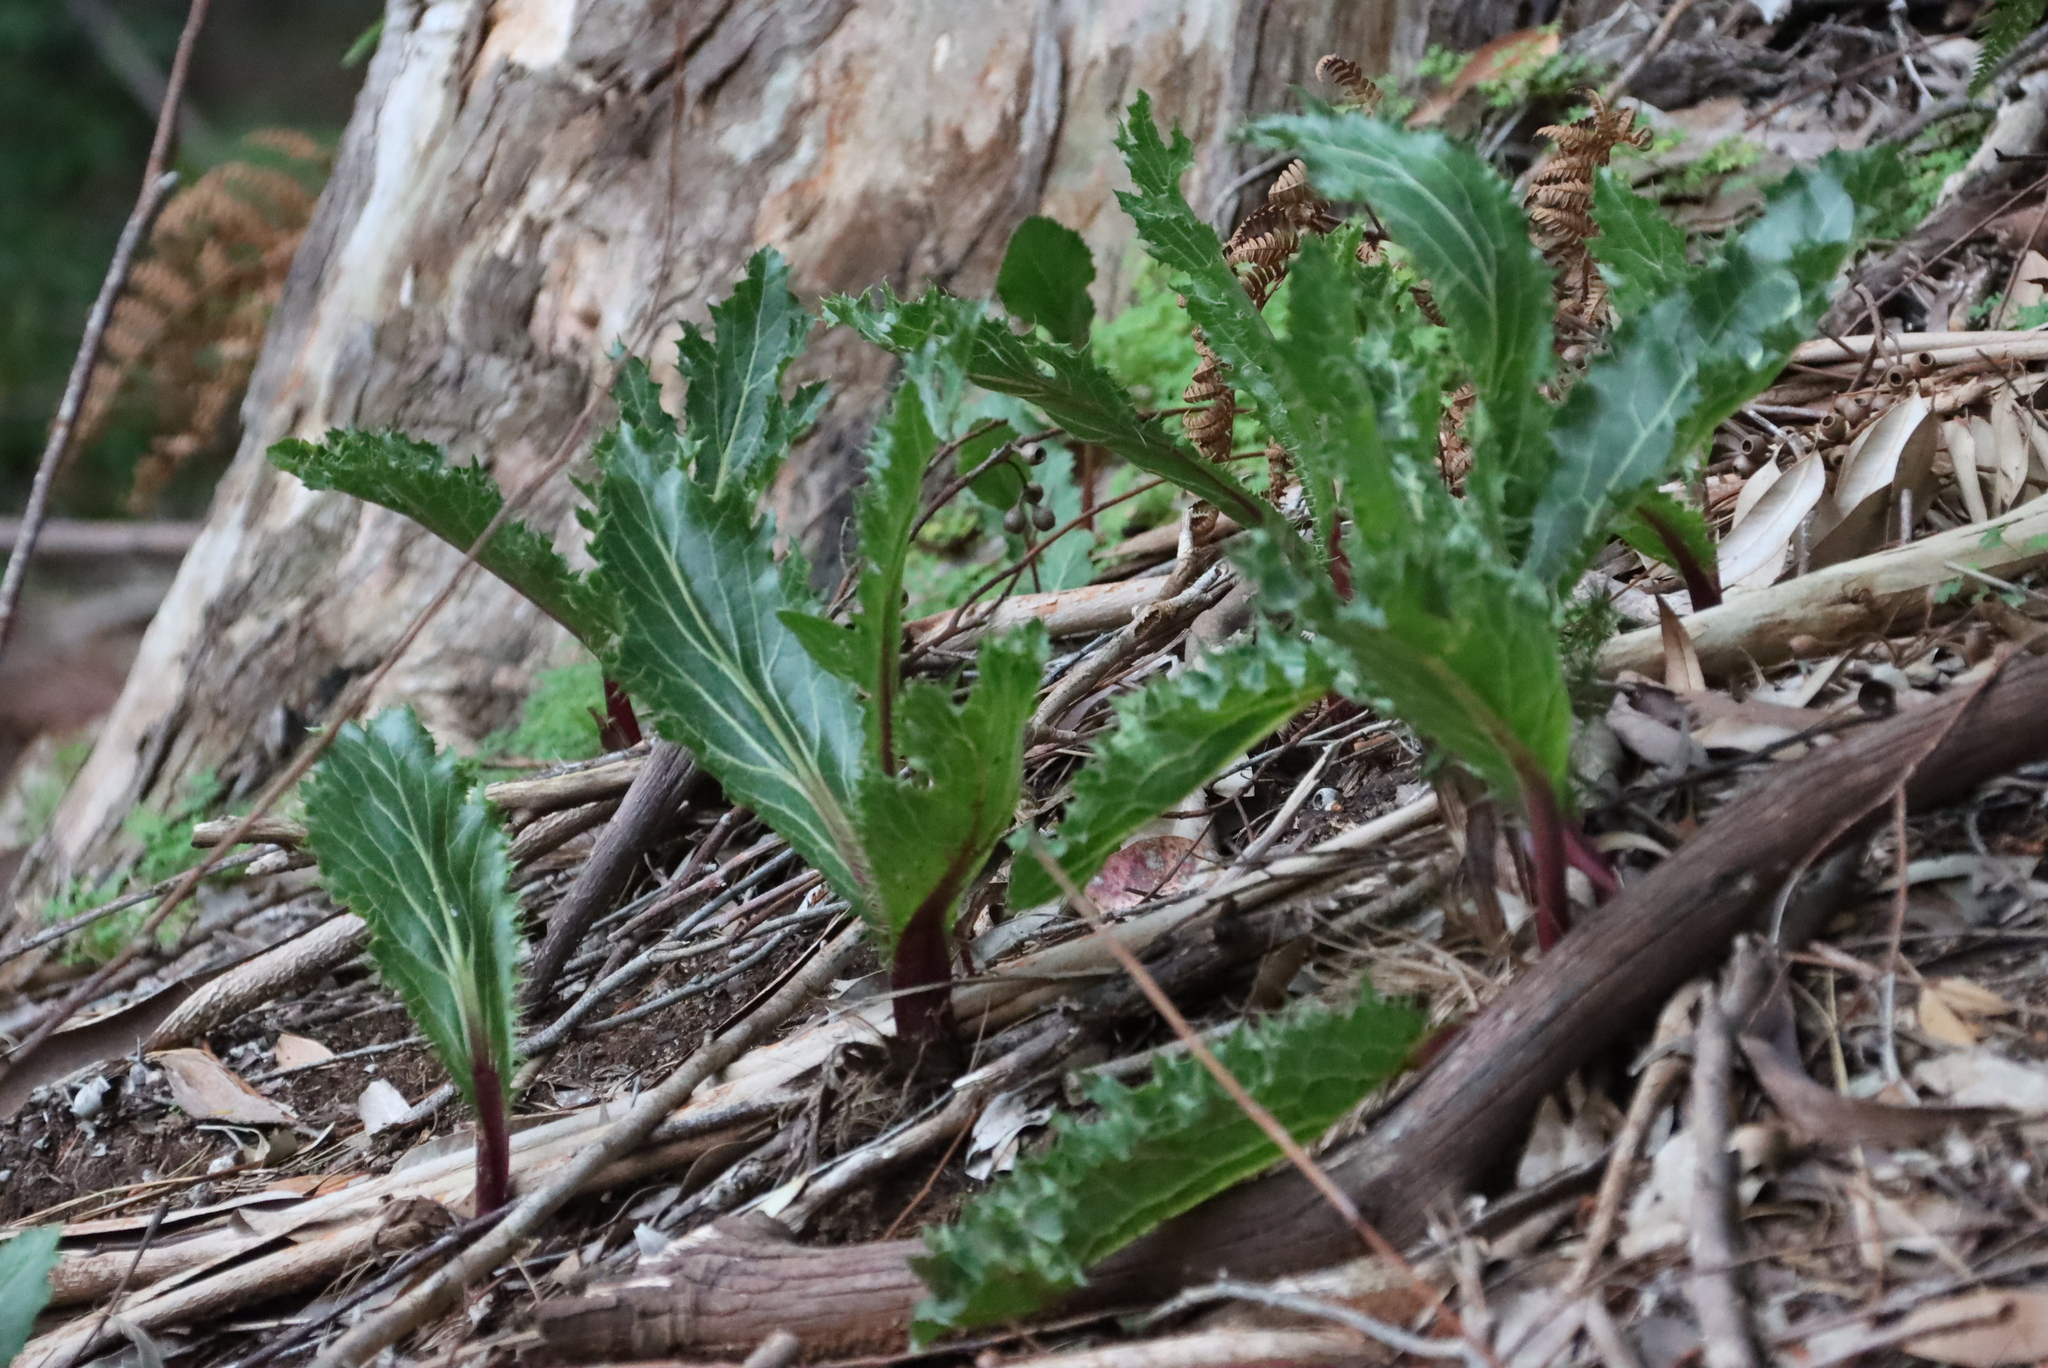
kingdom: Plantae
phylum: Tracheophyta
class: Magnoliopsida
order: Apiales
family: Apiaceae
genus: Lichtensteinia
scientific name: Lichtensteinia lacera
